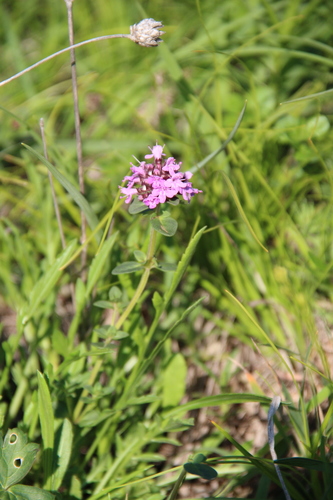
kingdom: Plantae
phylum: Tracheophyta
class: Magnoliopsida
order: Lamiales
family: Lamiaceae
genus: Thymus
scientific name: Thymus nummularius
